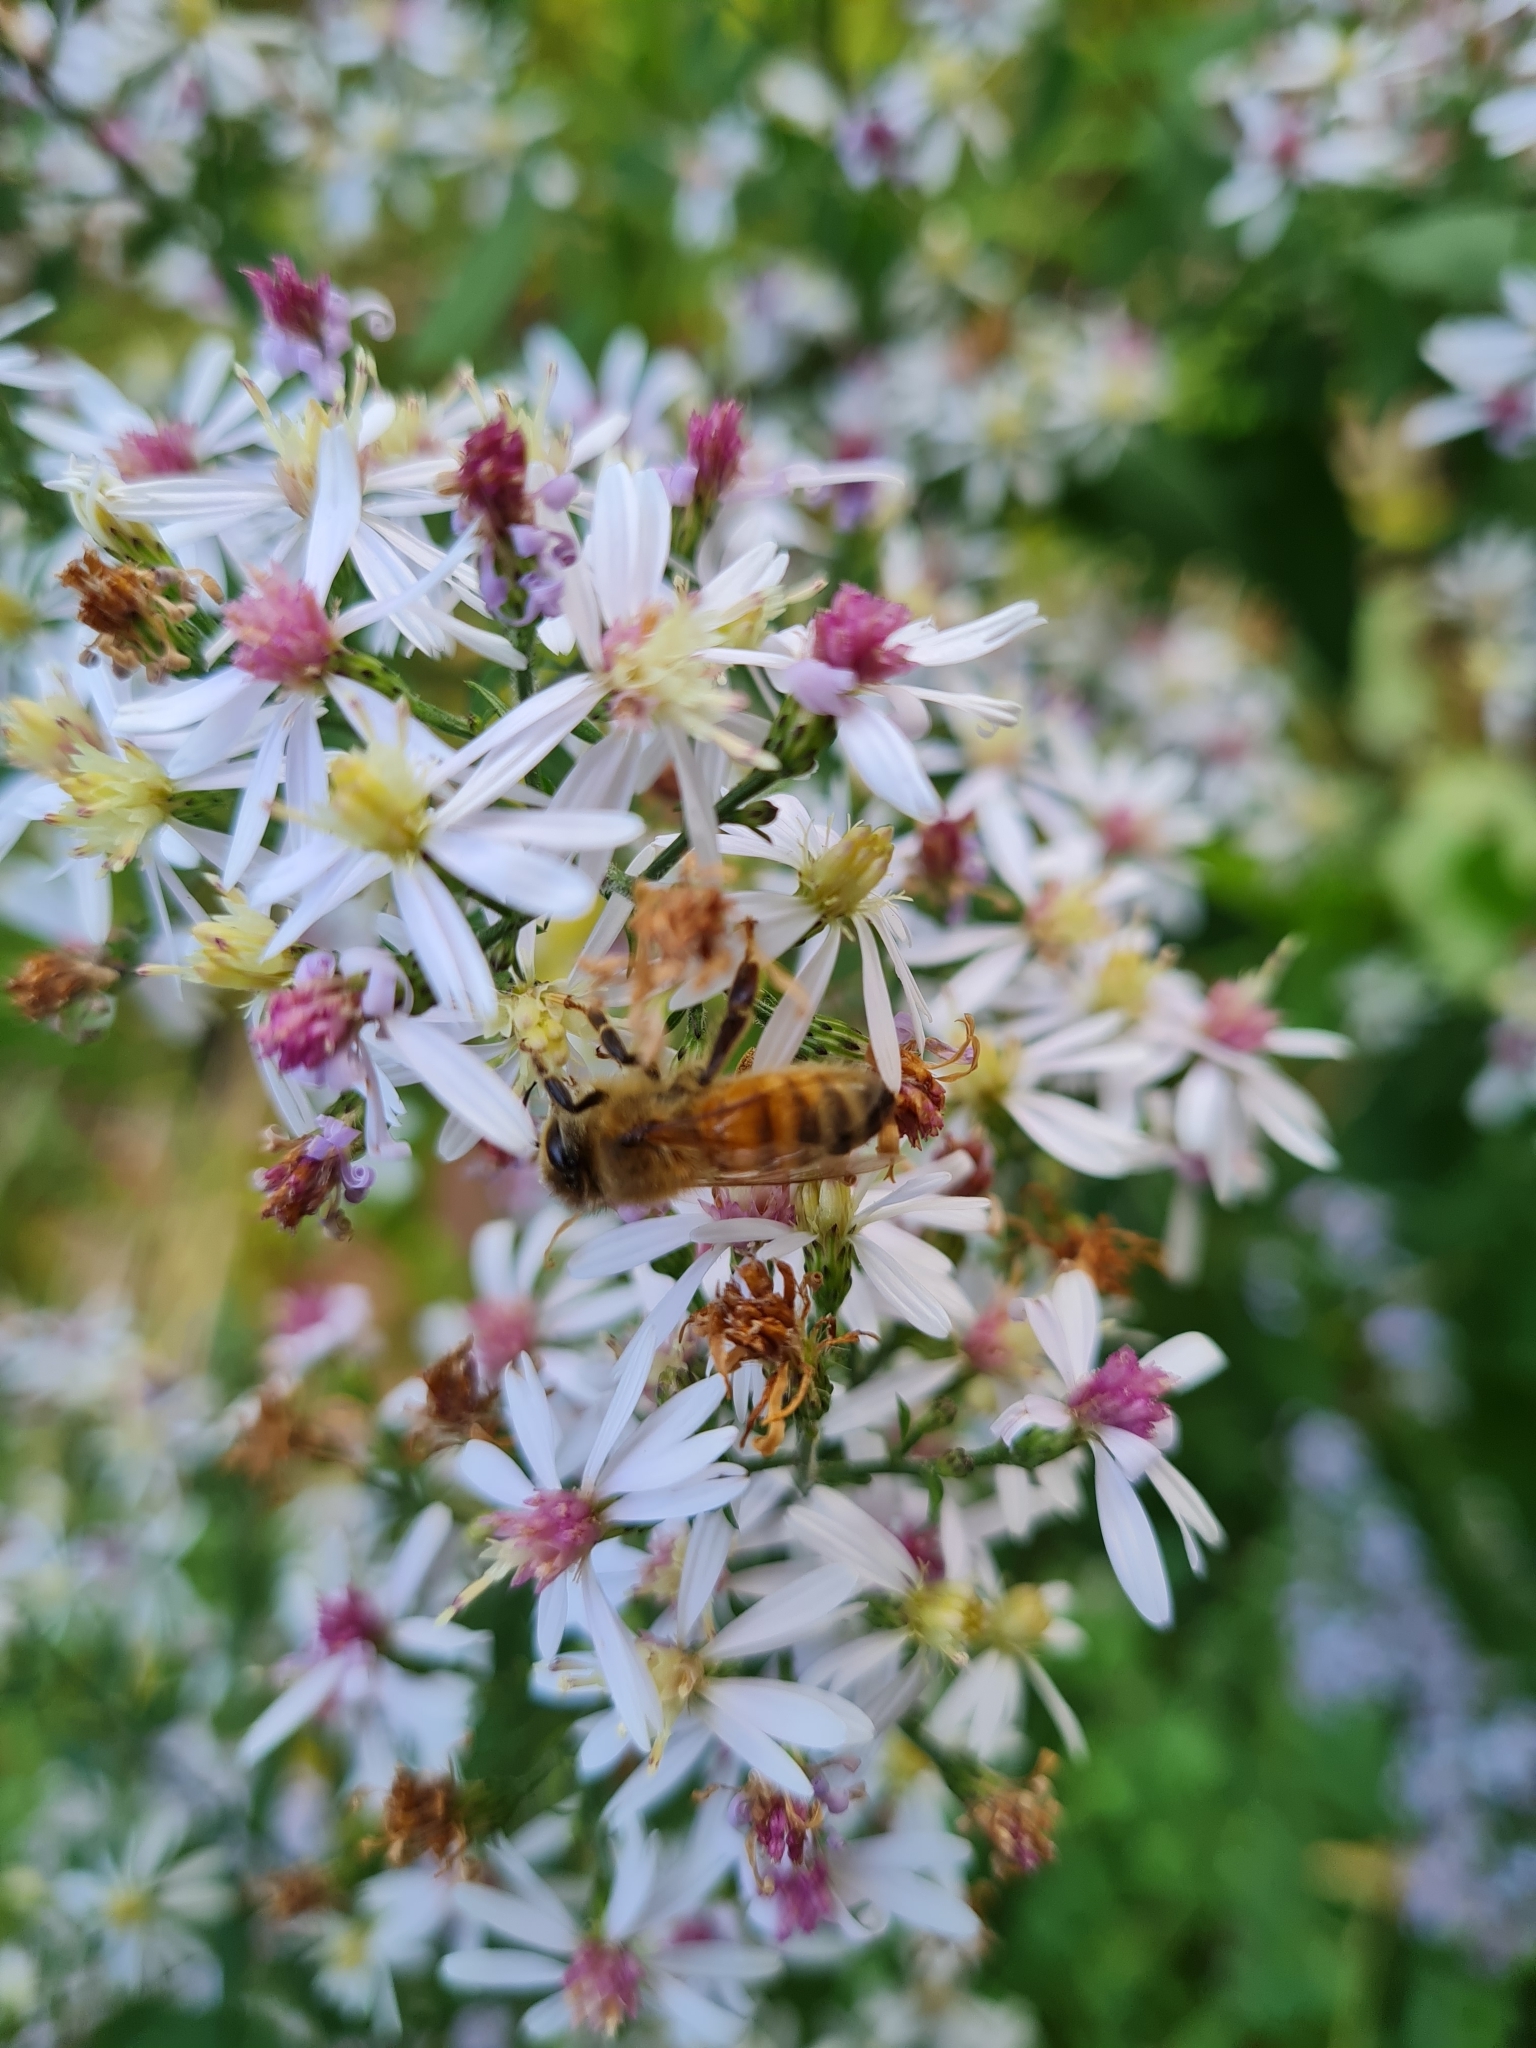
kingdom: Animalia
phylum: Arthropoda
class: Insecta
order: Hymenoptera
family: Apidae
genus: Apis
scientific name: Apis mellifera
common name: Honey bee
